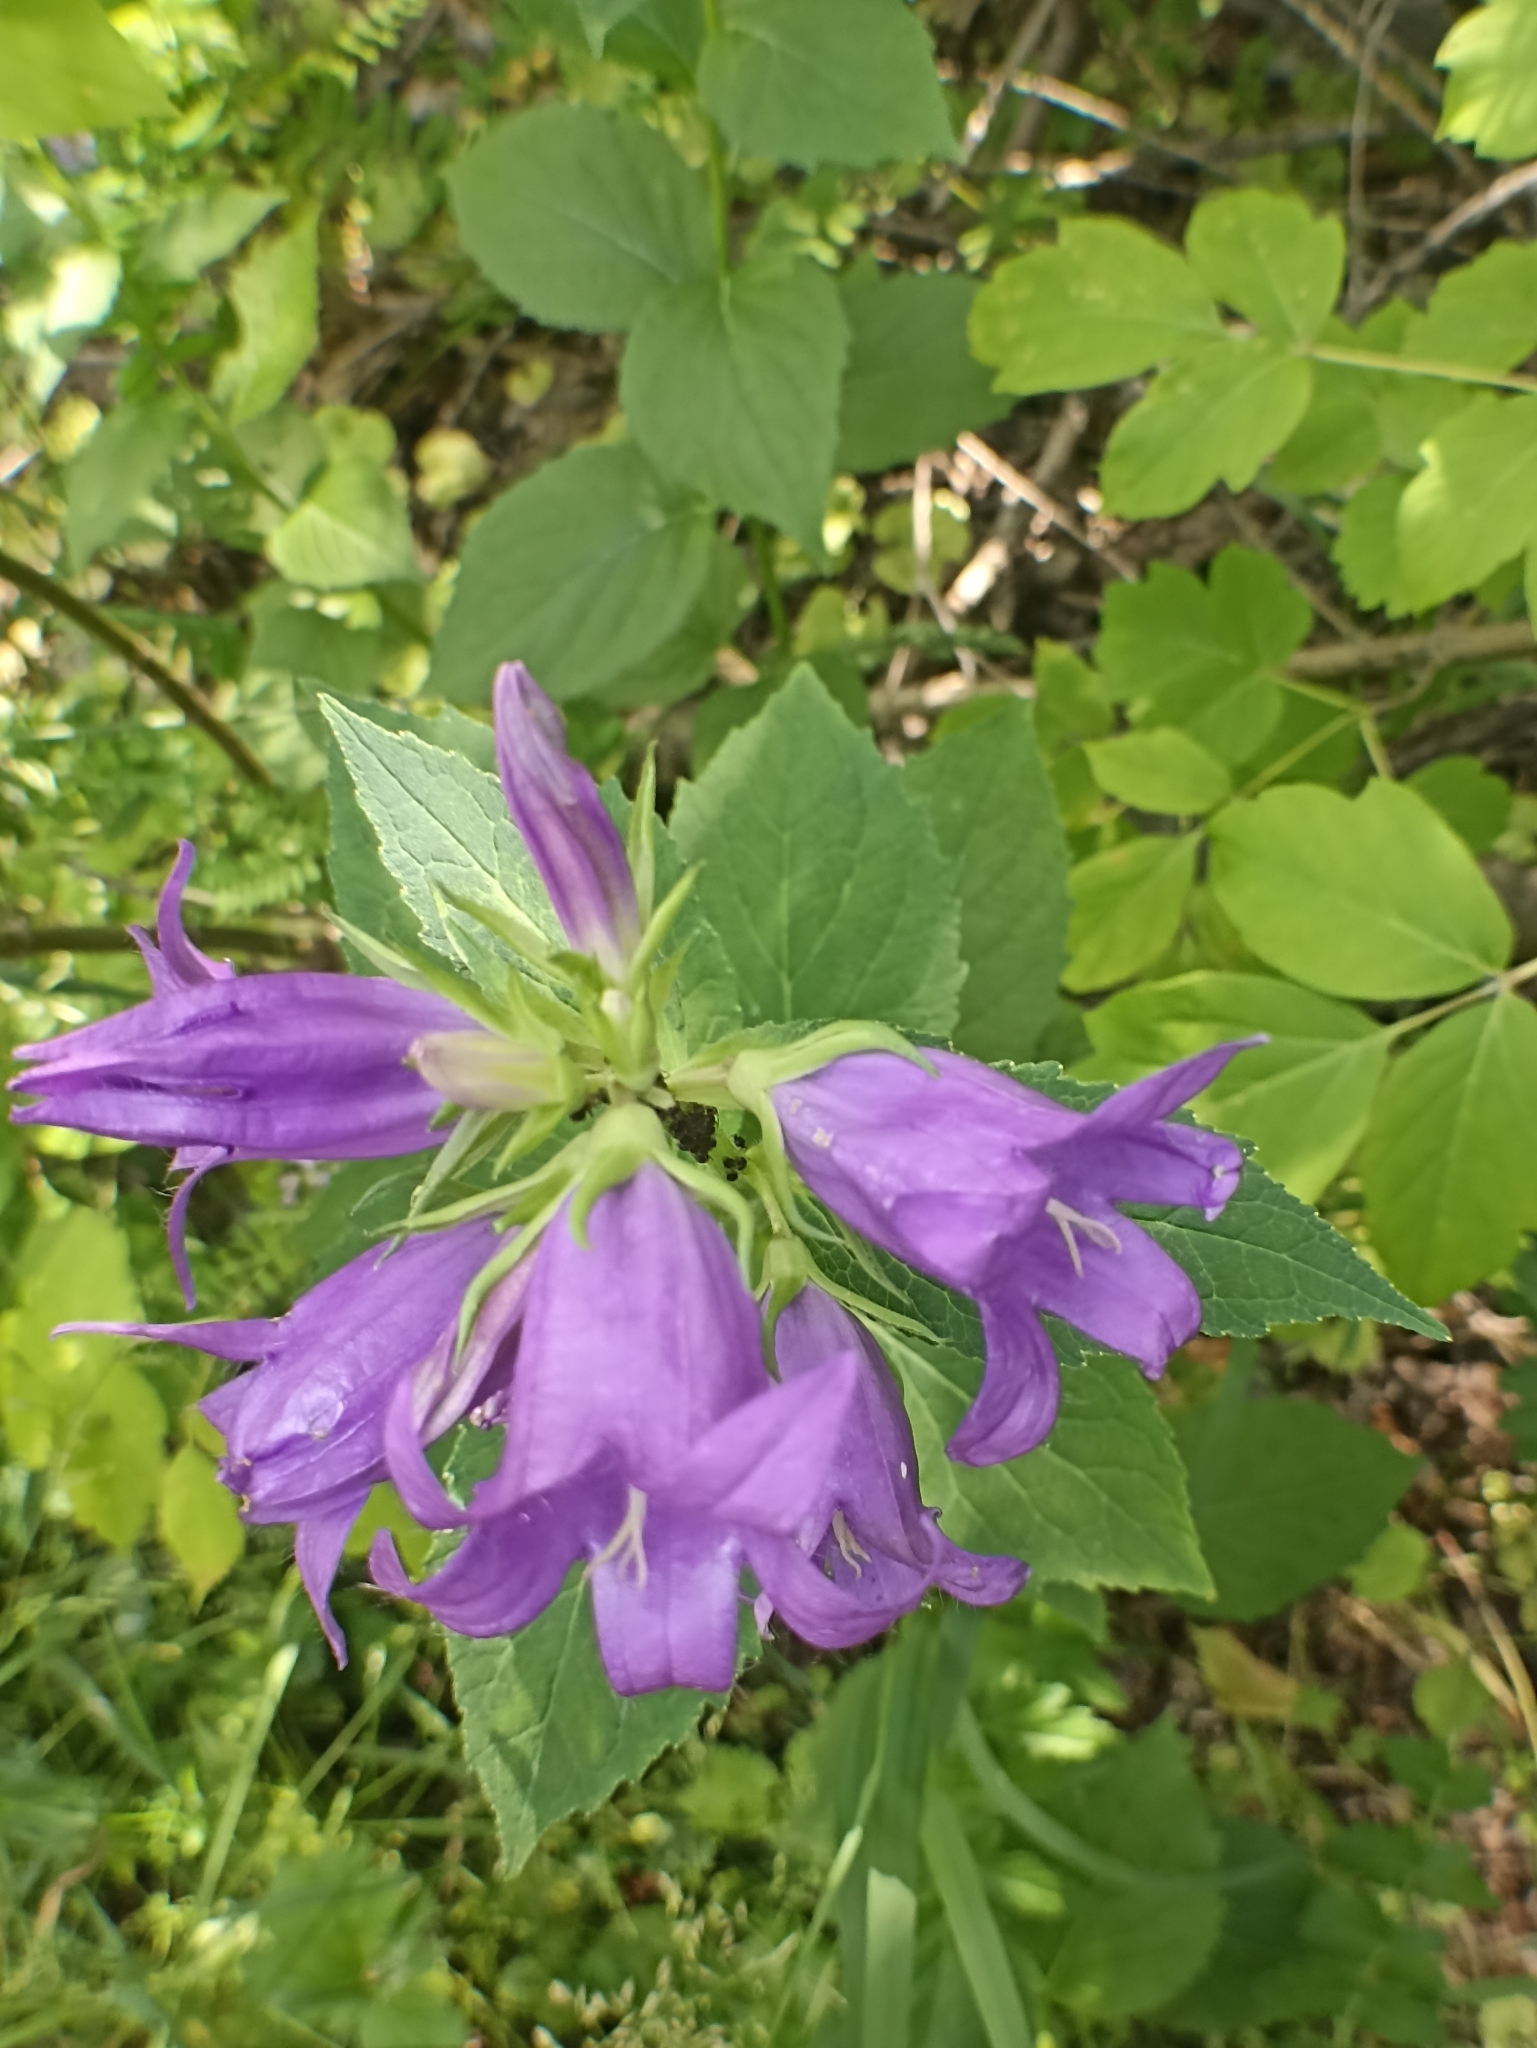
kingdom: Plantae
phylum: Tracheophyta
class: Magnoliopsida
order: Asterales
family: Campanulaceae
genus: Campanula
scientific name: Campanula latifolia
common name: Giant bellflower
